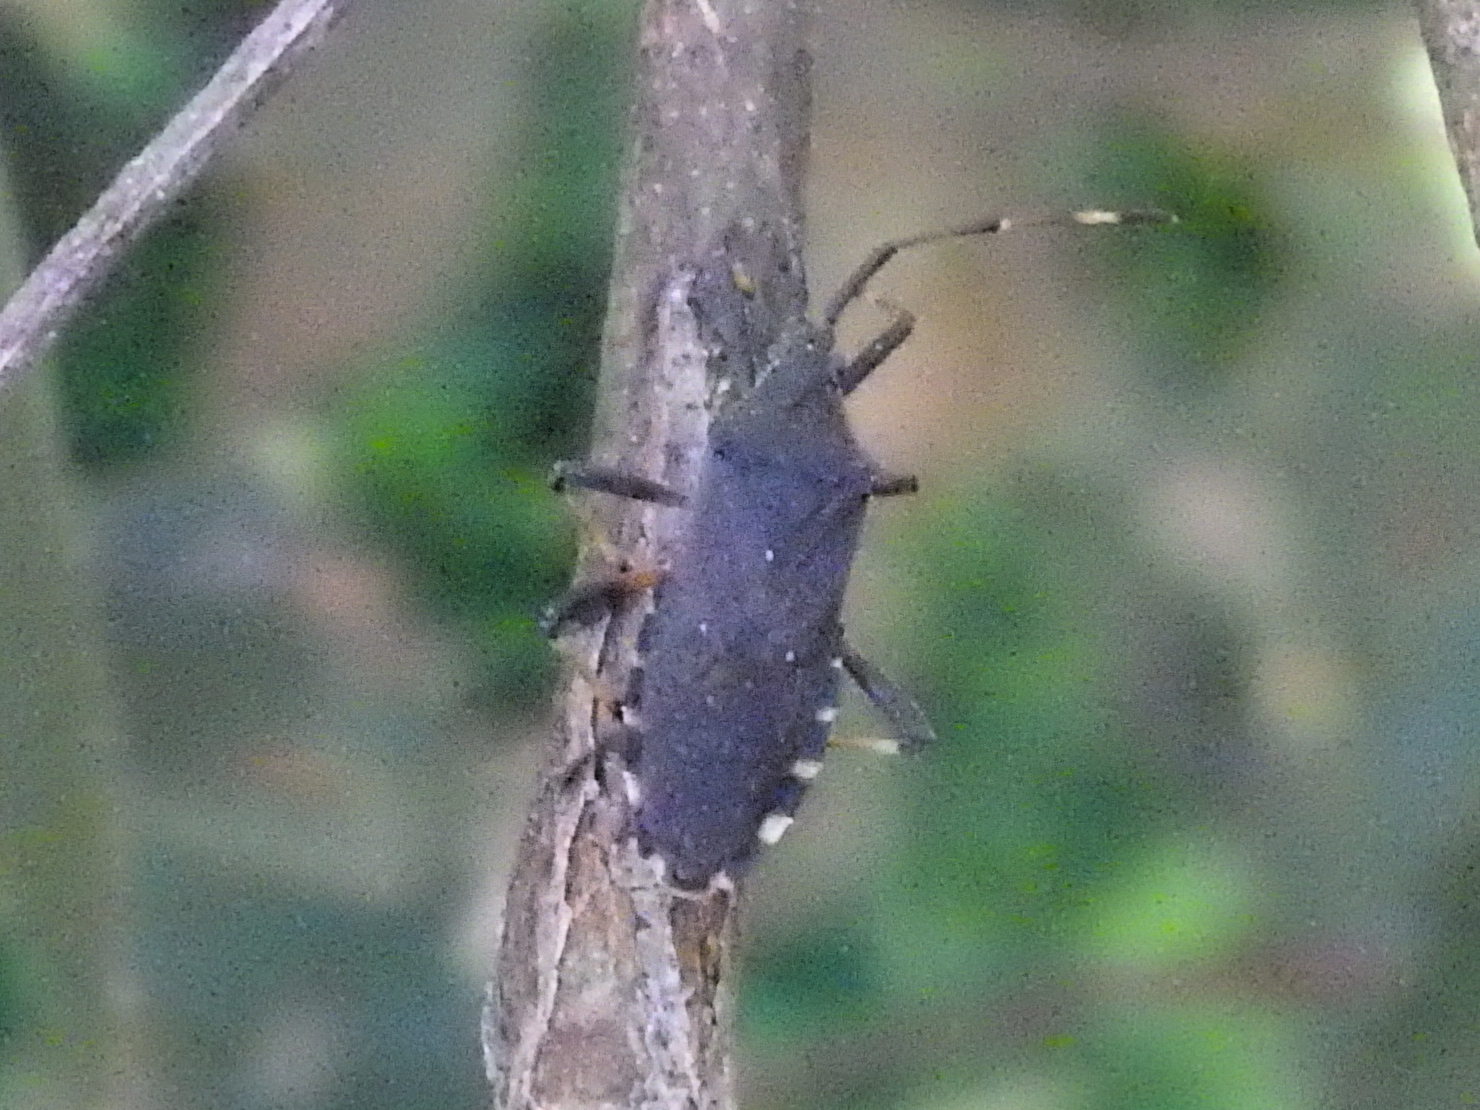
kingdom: Animalia
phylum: Arthropoda
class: Insecta
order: Hemiptera
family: Coreidae
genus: Gelonus
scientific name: Gelonus tasmanicus
